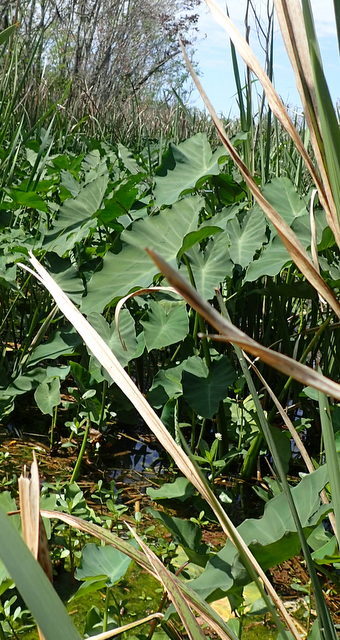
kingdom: Plantae
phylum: Tracheophyta
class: Liliopsida
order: Alismatales
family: Araceae
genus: Colocasia
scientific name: Colocasia esculenta
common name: Taro
